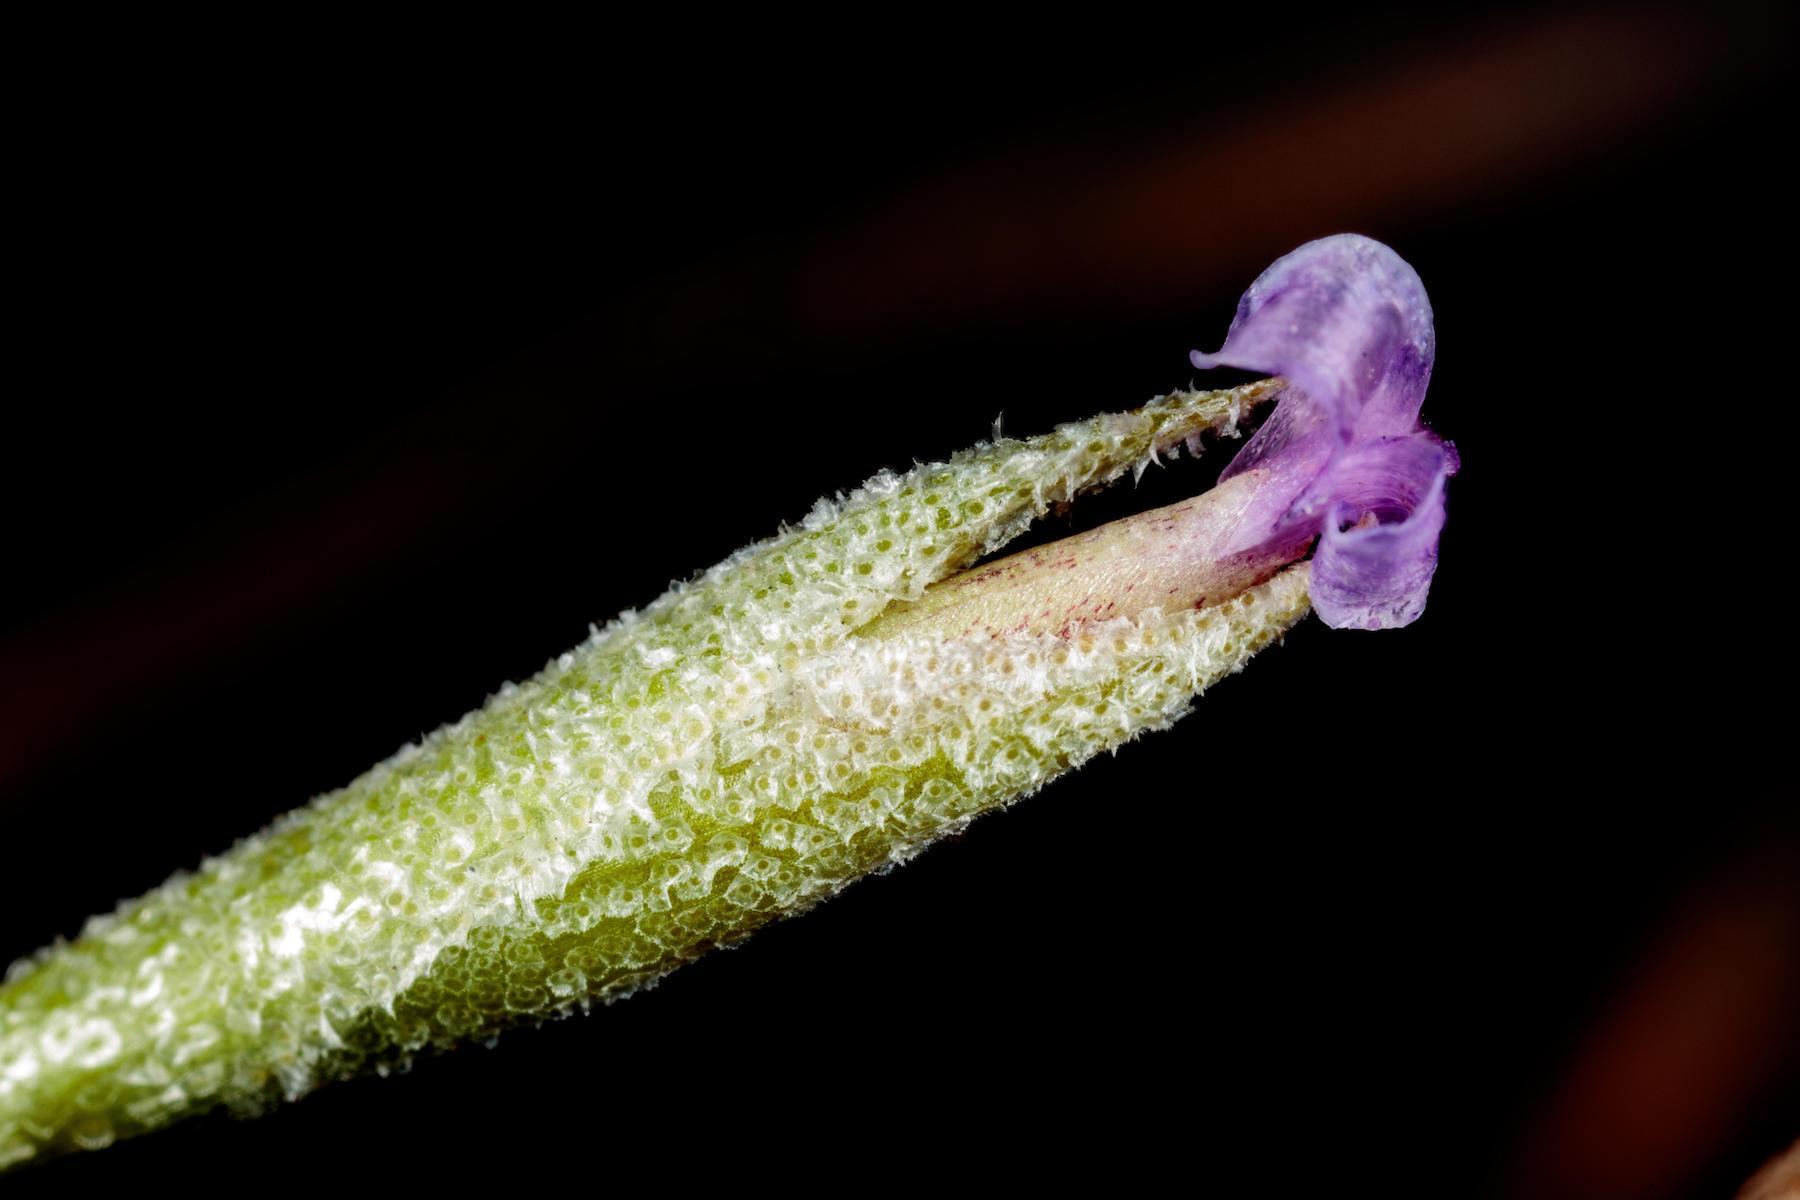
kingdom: Plantae
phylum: Tracheophyta
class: Liliopsida
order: Poales
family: Bromeliaceae
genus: Tillandsia
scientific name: Tillandsia recurvata
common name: Small ballmoss
